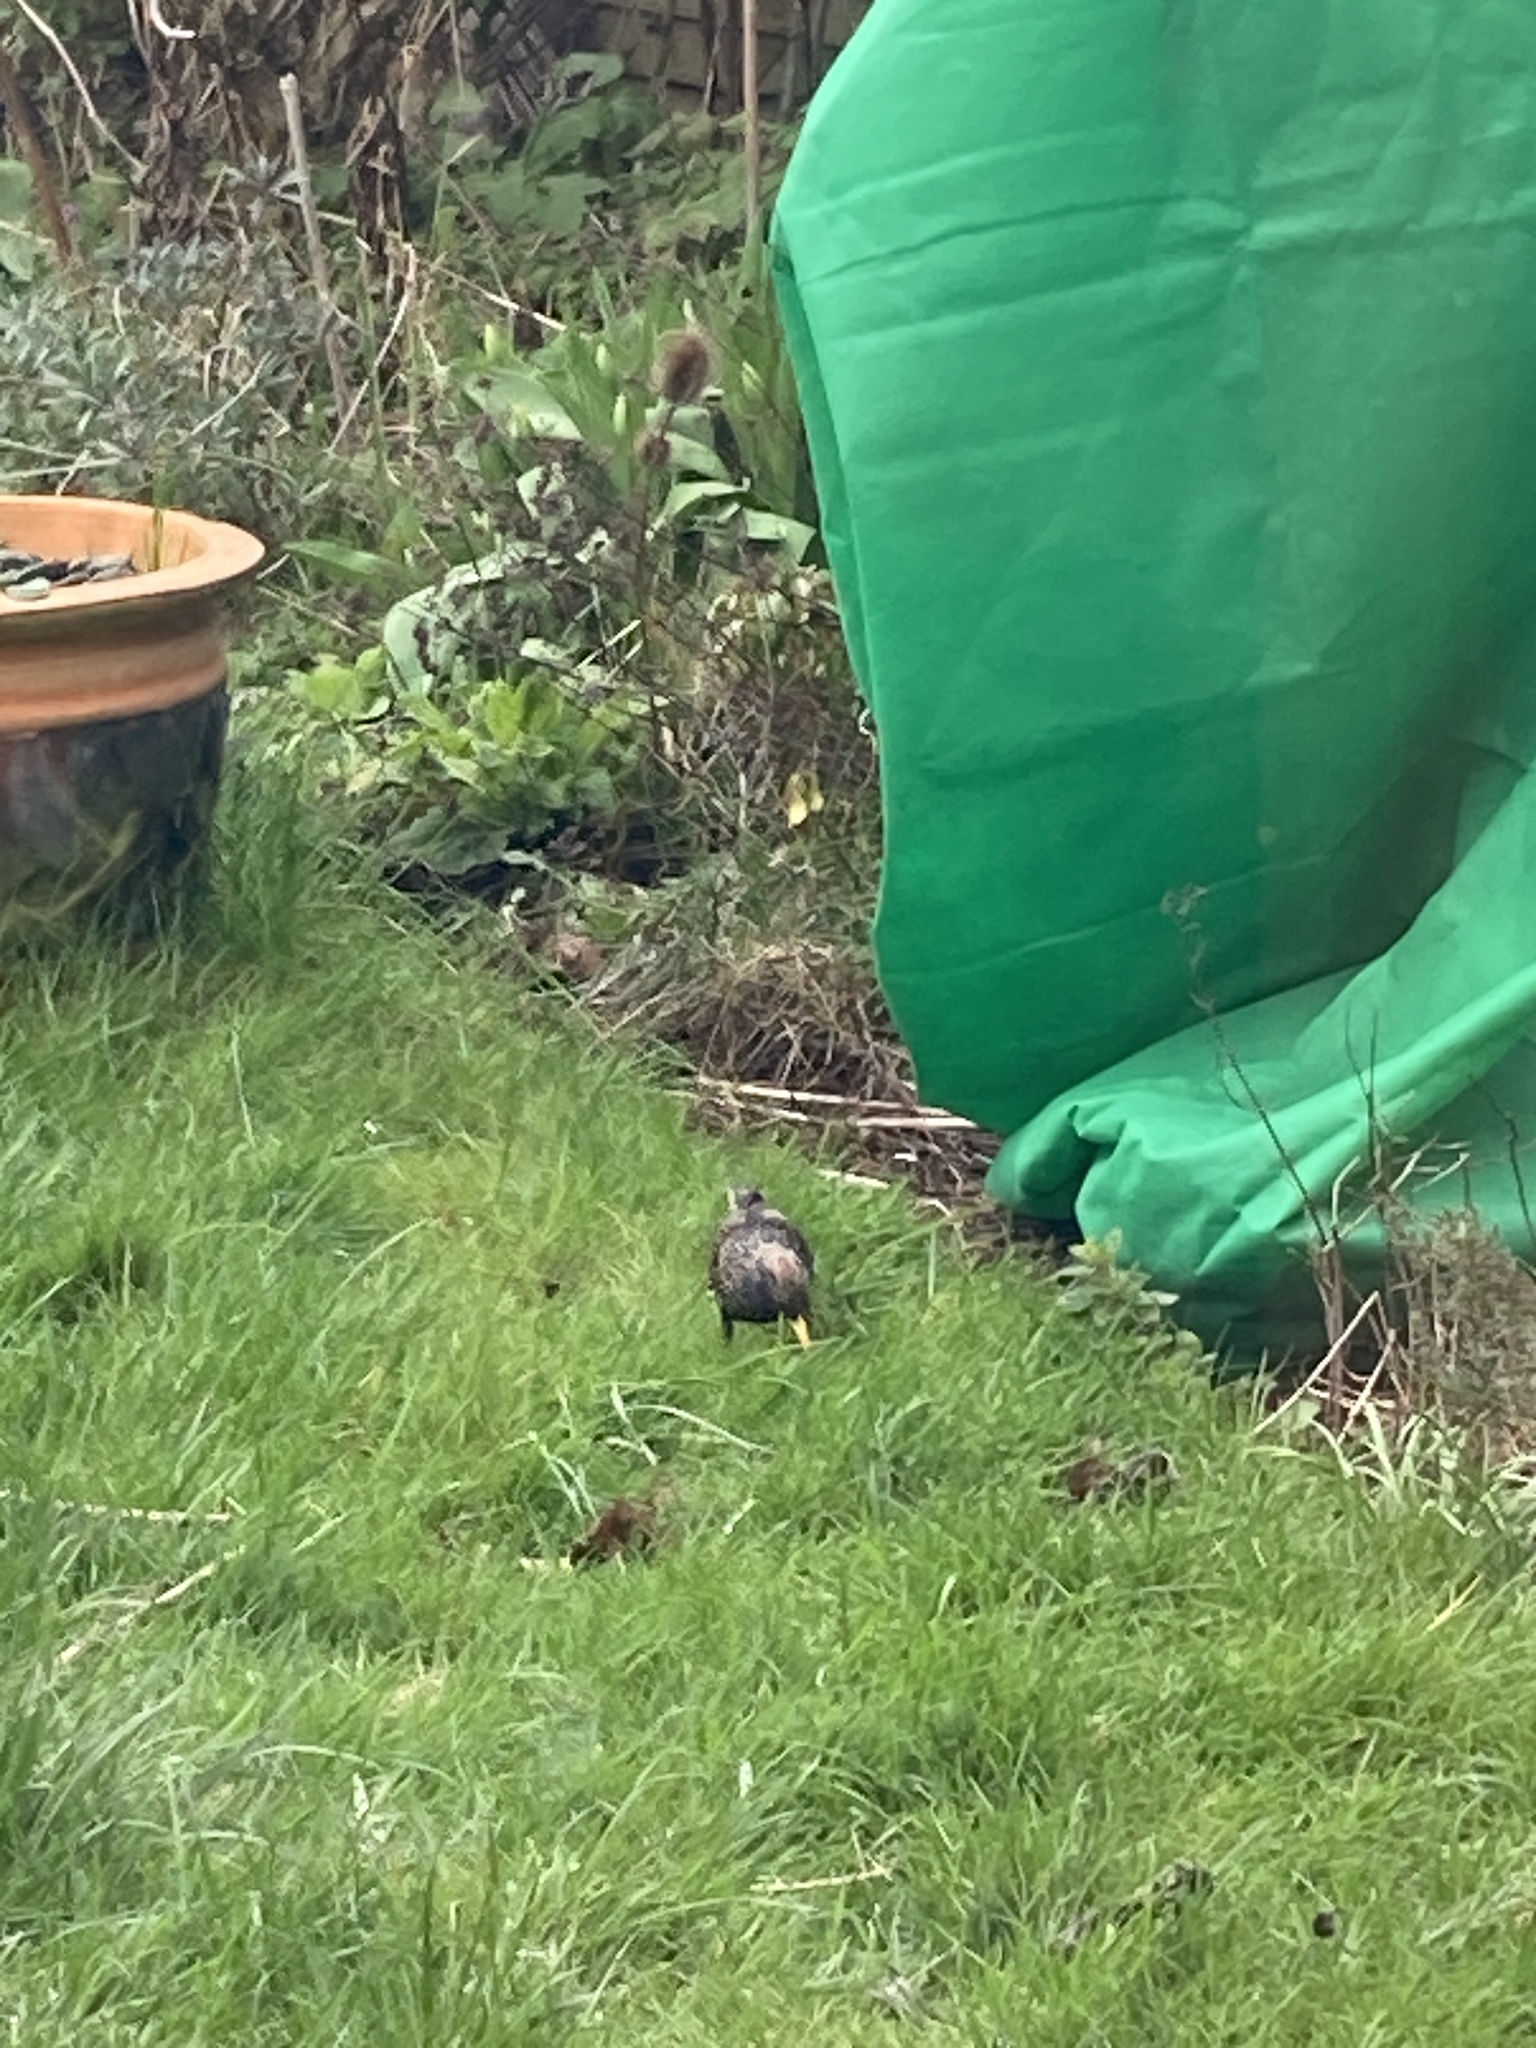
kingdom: Animalia
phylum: Chordata
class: Aves
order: Passeriformes
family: Sturnidae
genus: Sturnus
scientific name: Sturnus vulgaris
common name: Common starling
